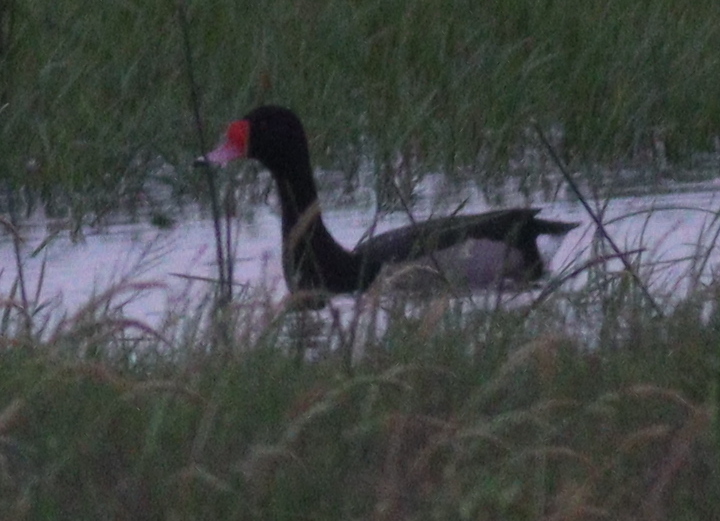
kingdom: Animalia
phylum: Chordata
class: Aves
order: Anseriformes
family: Anatidae
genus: Netta
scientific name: Netta peposaca
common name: Rosy-billed pochard
